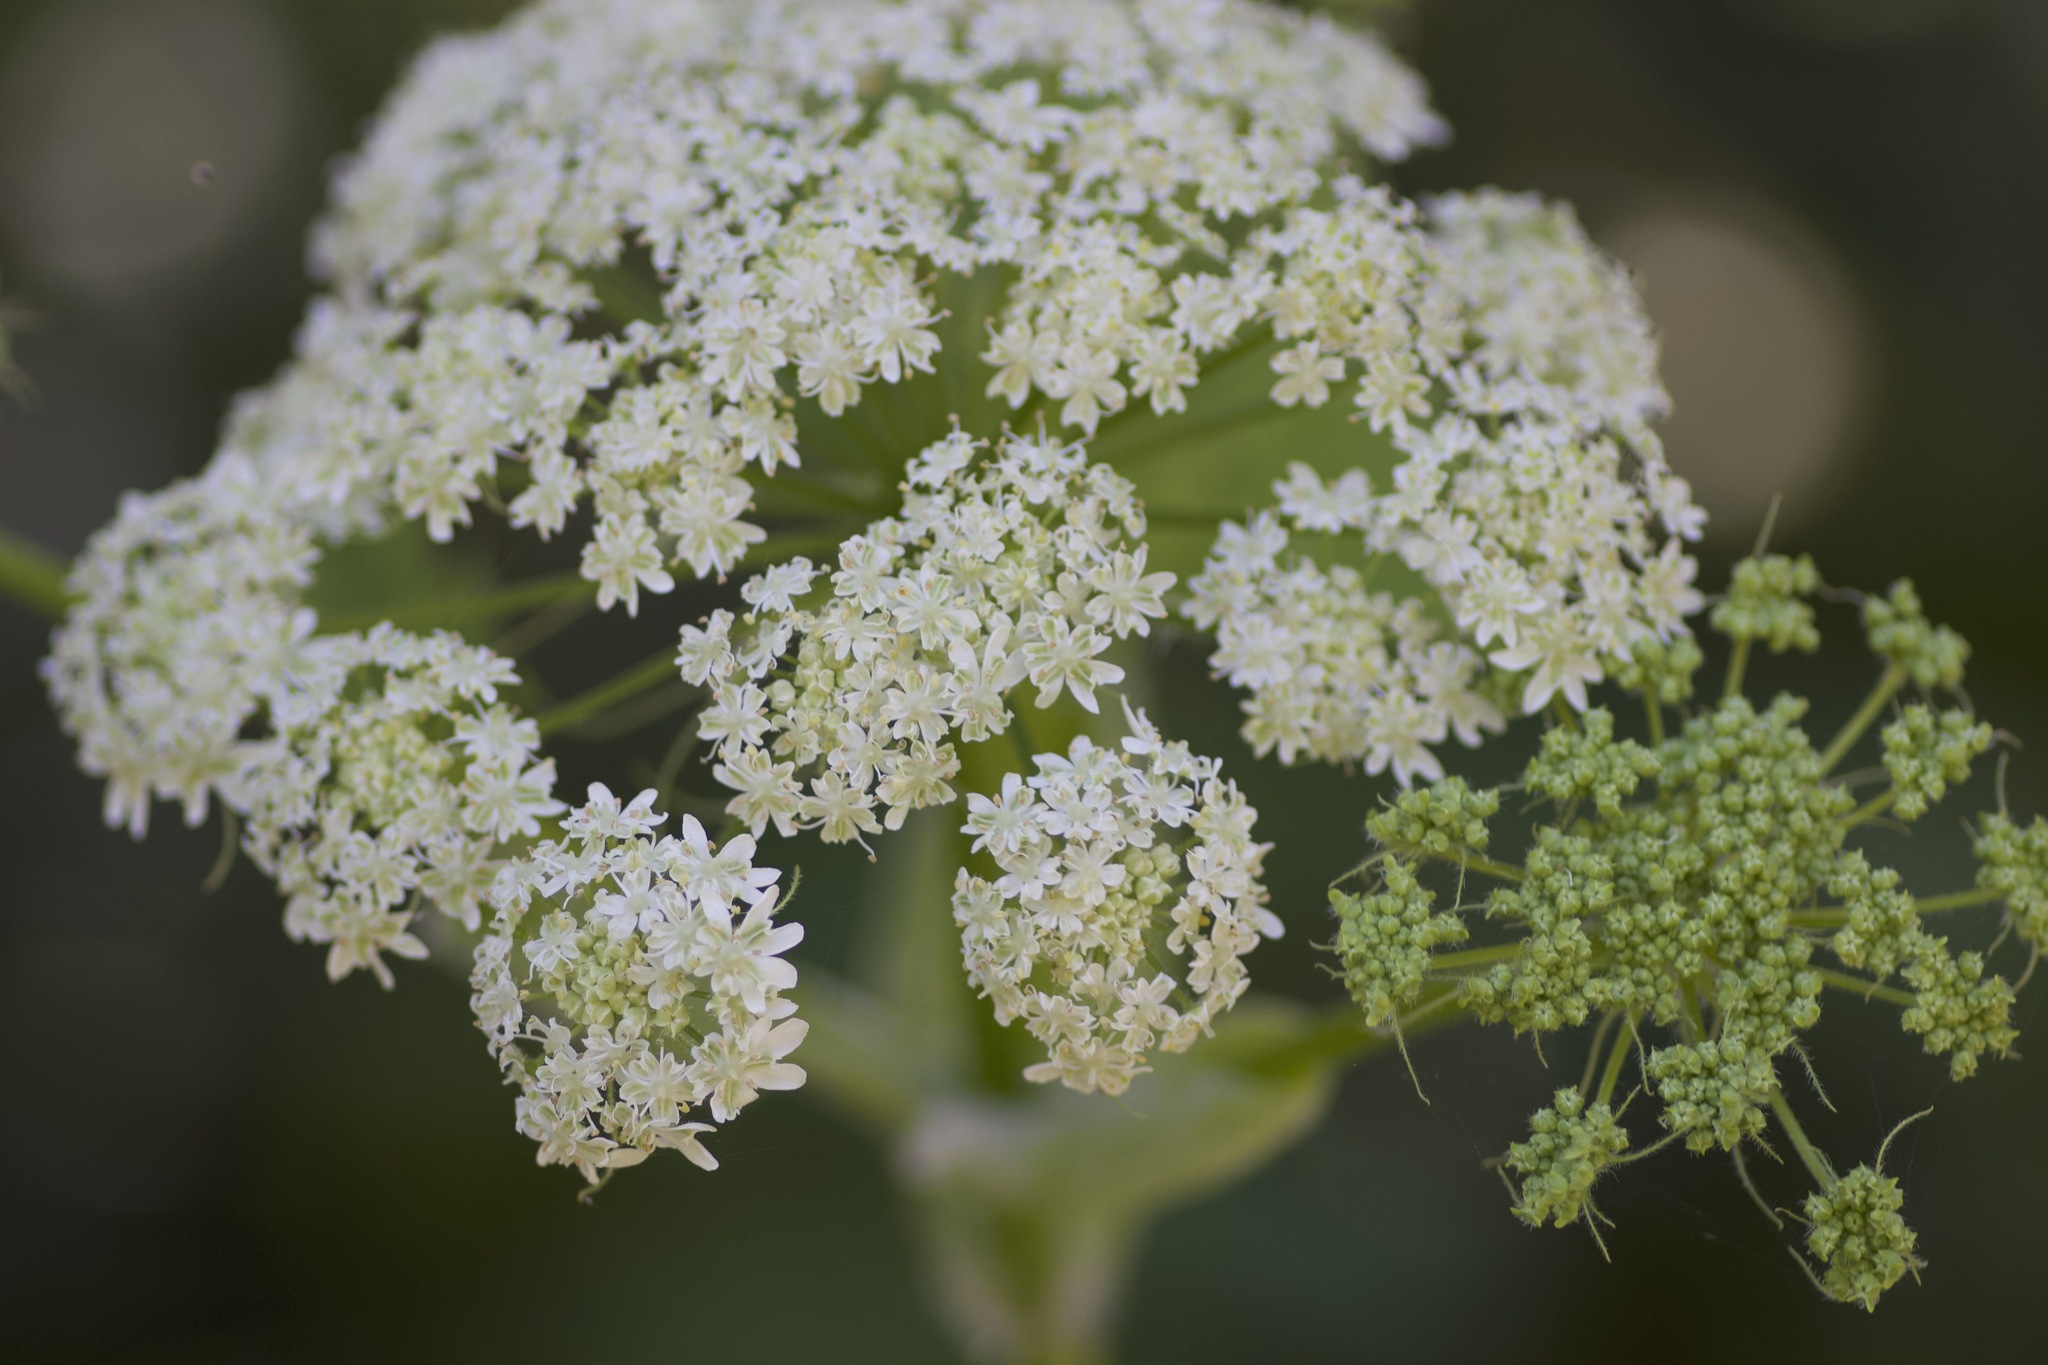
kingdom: Plantae
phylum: Tracheophyta
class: Magnoliopsida
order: Apiales
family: Apiaceae
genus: Heracleum
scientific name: Heracleum maximum
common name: American cow parsnip
